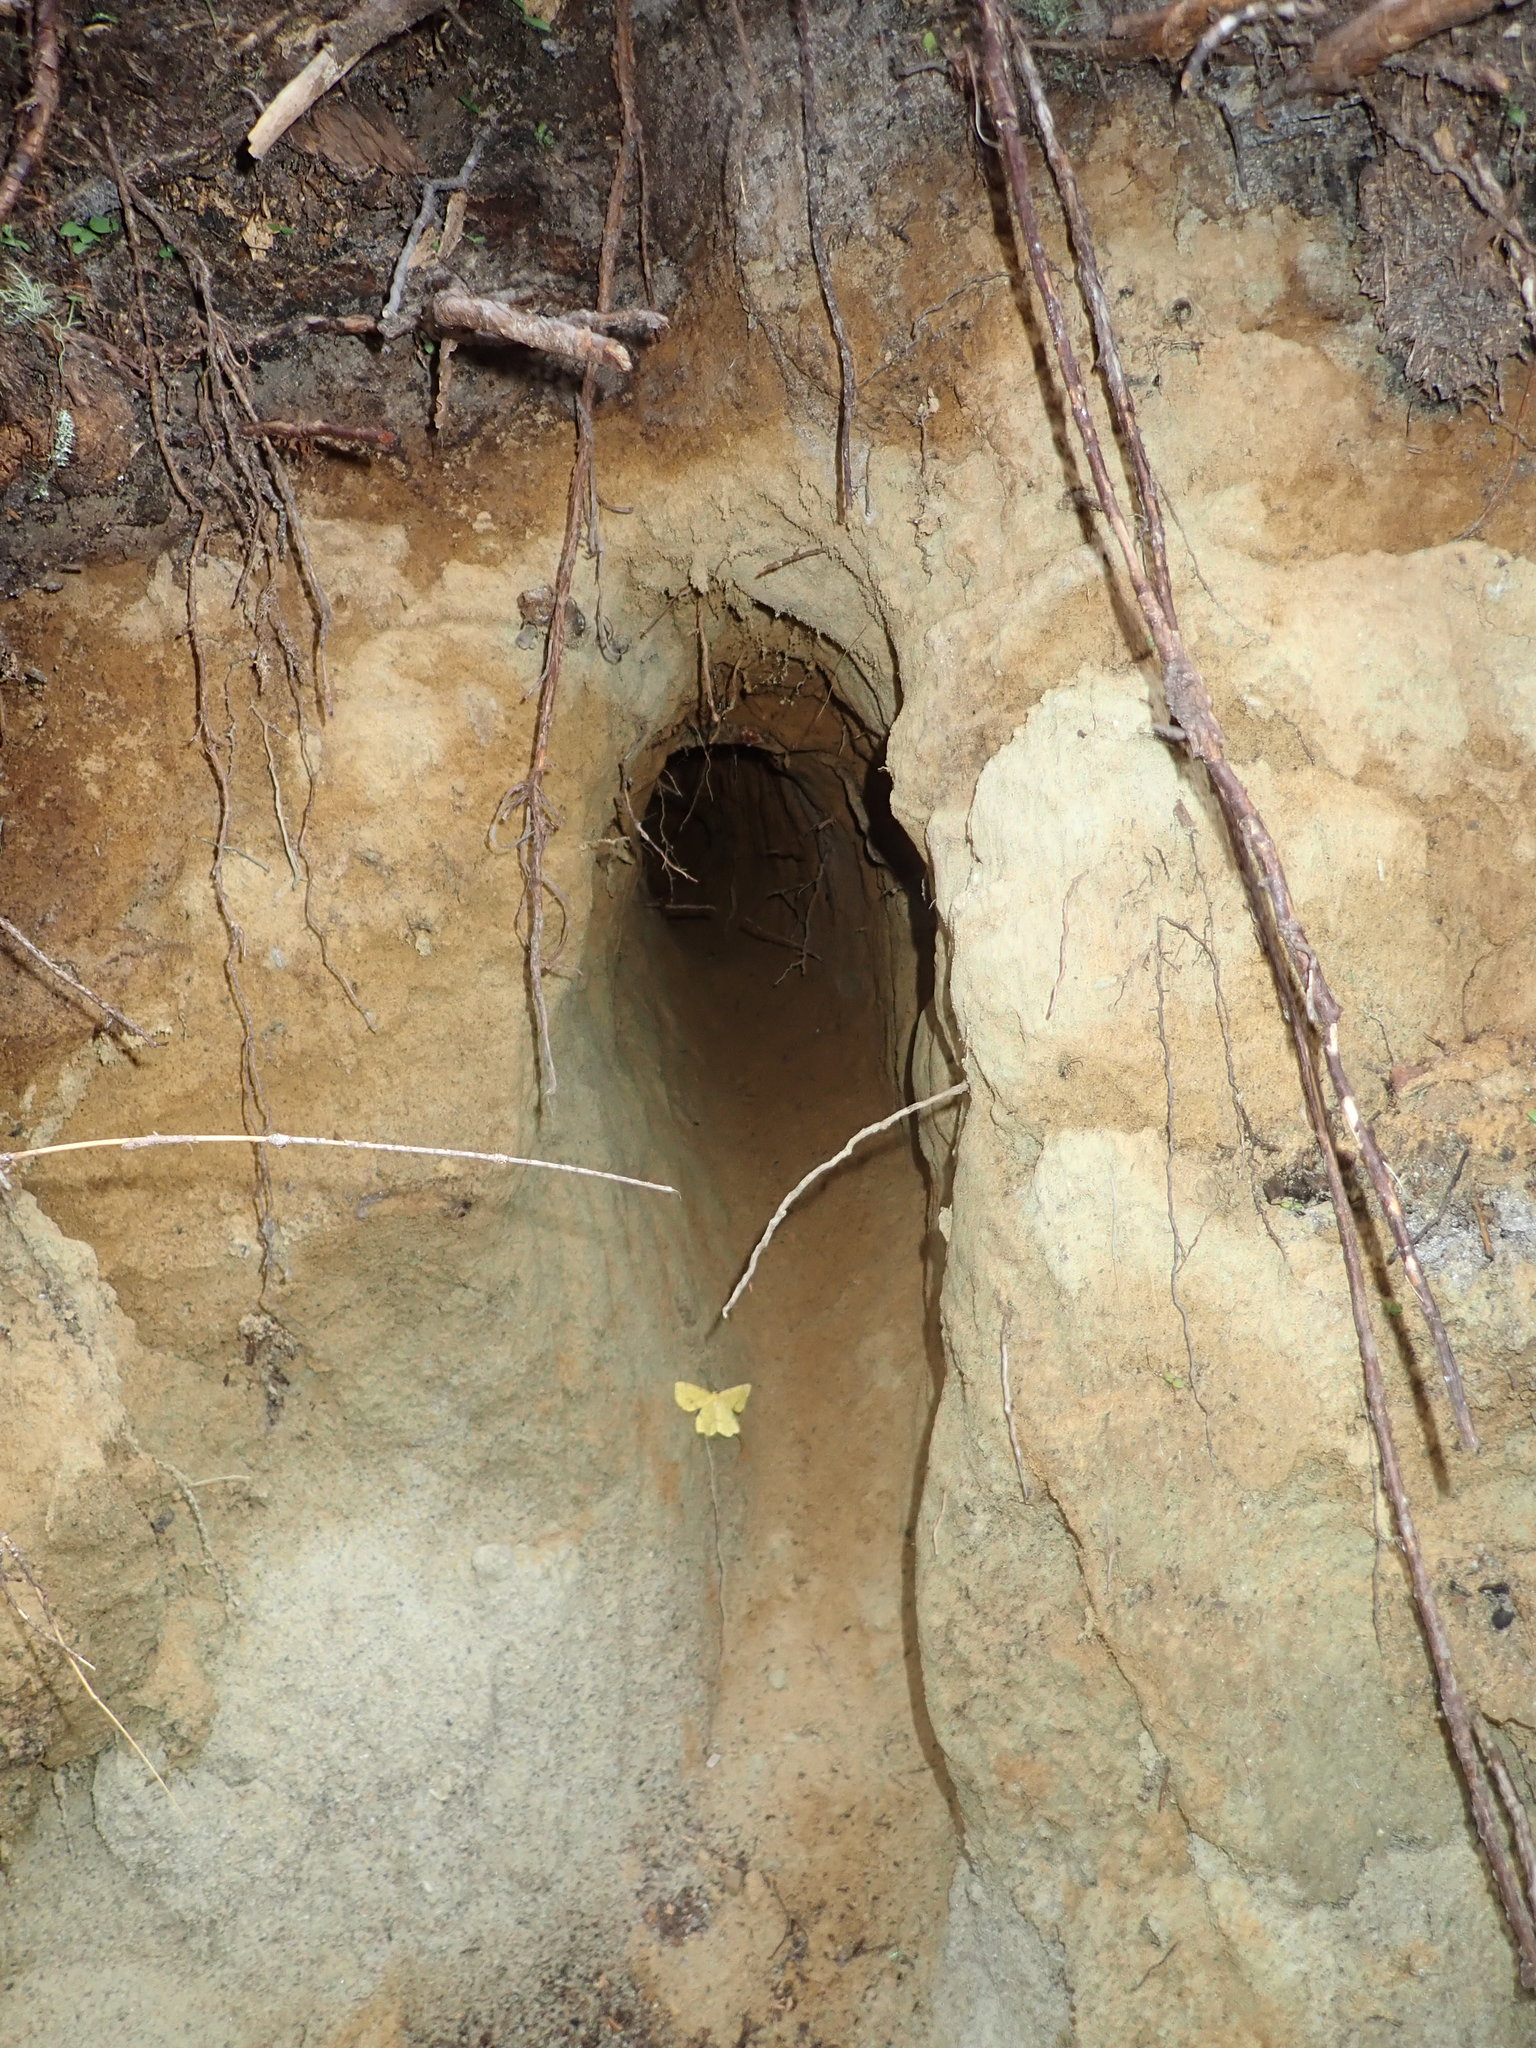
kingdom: Animalia
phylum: Chordata
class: Aves
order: Coraciiformes
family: Alcedinidae
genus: Megaceryle
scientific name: Megaceryle alcyon
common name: Belted kingfisher
